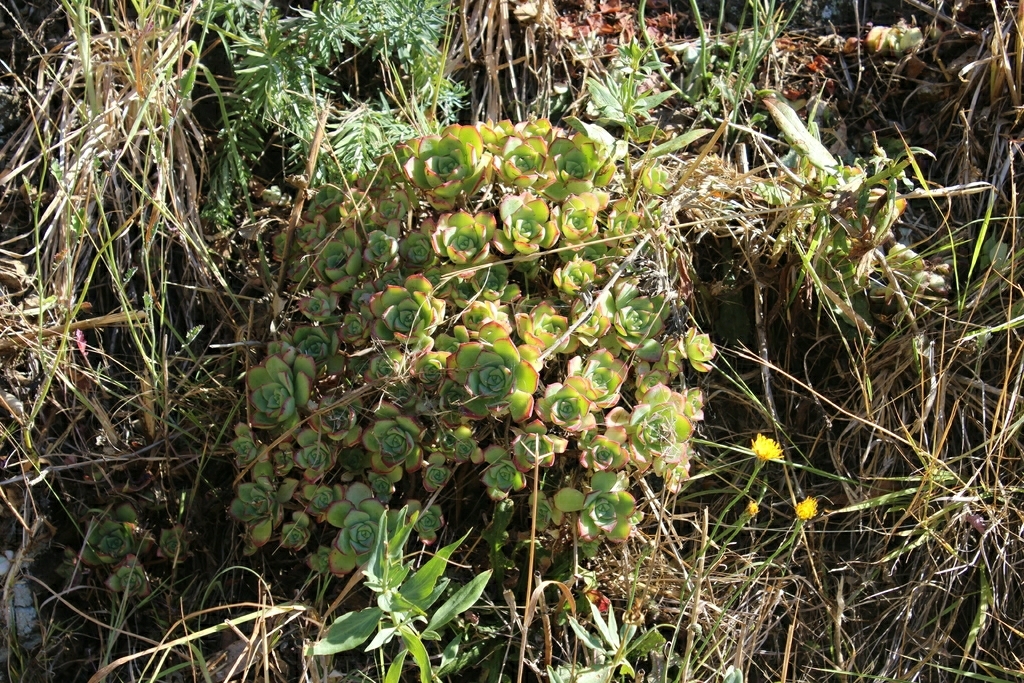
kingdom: Plantae
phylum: Tracheophyta
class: Magnoliopsida
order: Saxifragales
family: Crassulaceae
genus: Aeonium
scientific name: Aeonium haworthii
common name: Haworth's aeonium
